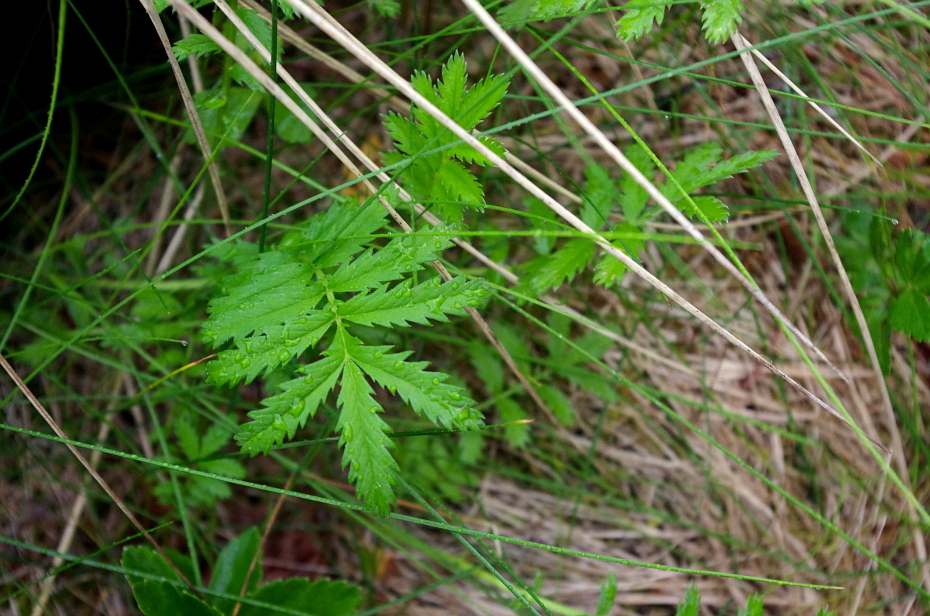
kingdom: Plantae
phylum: Tracheophyta
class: Magnoliopsida
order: Rosales
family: Rosaceae
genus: Argentina
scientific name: Argentina anserina
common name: Common silverweed
